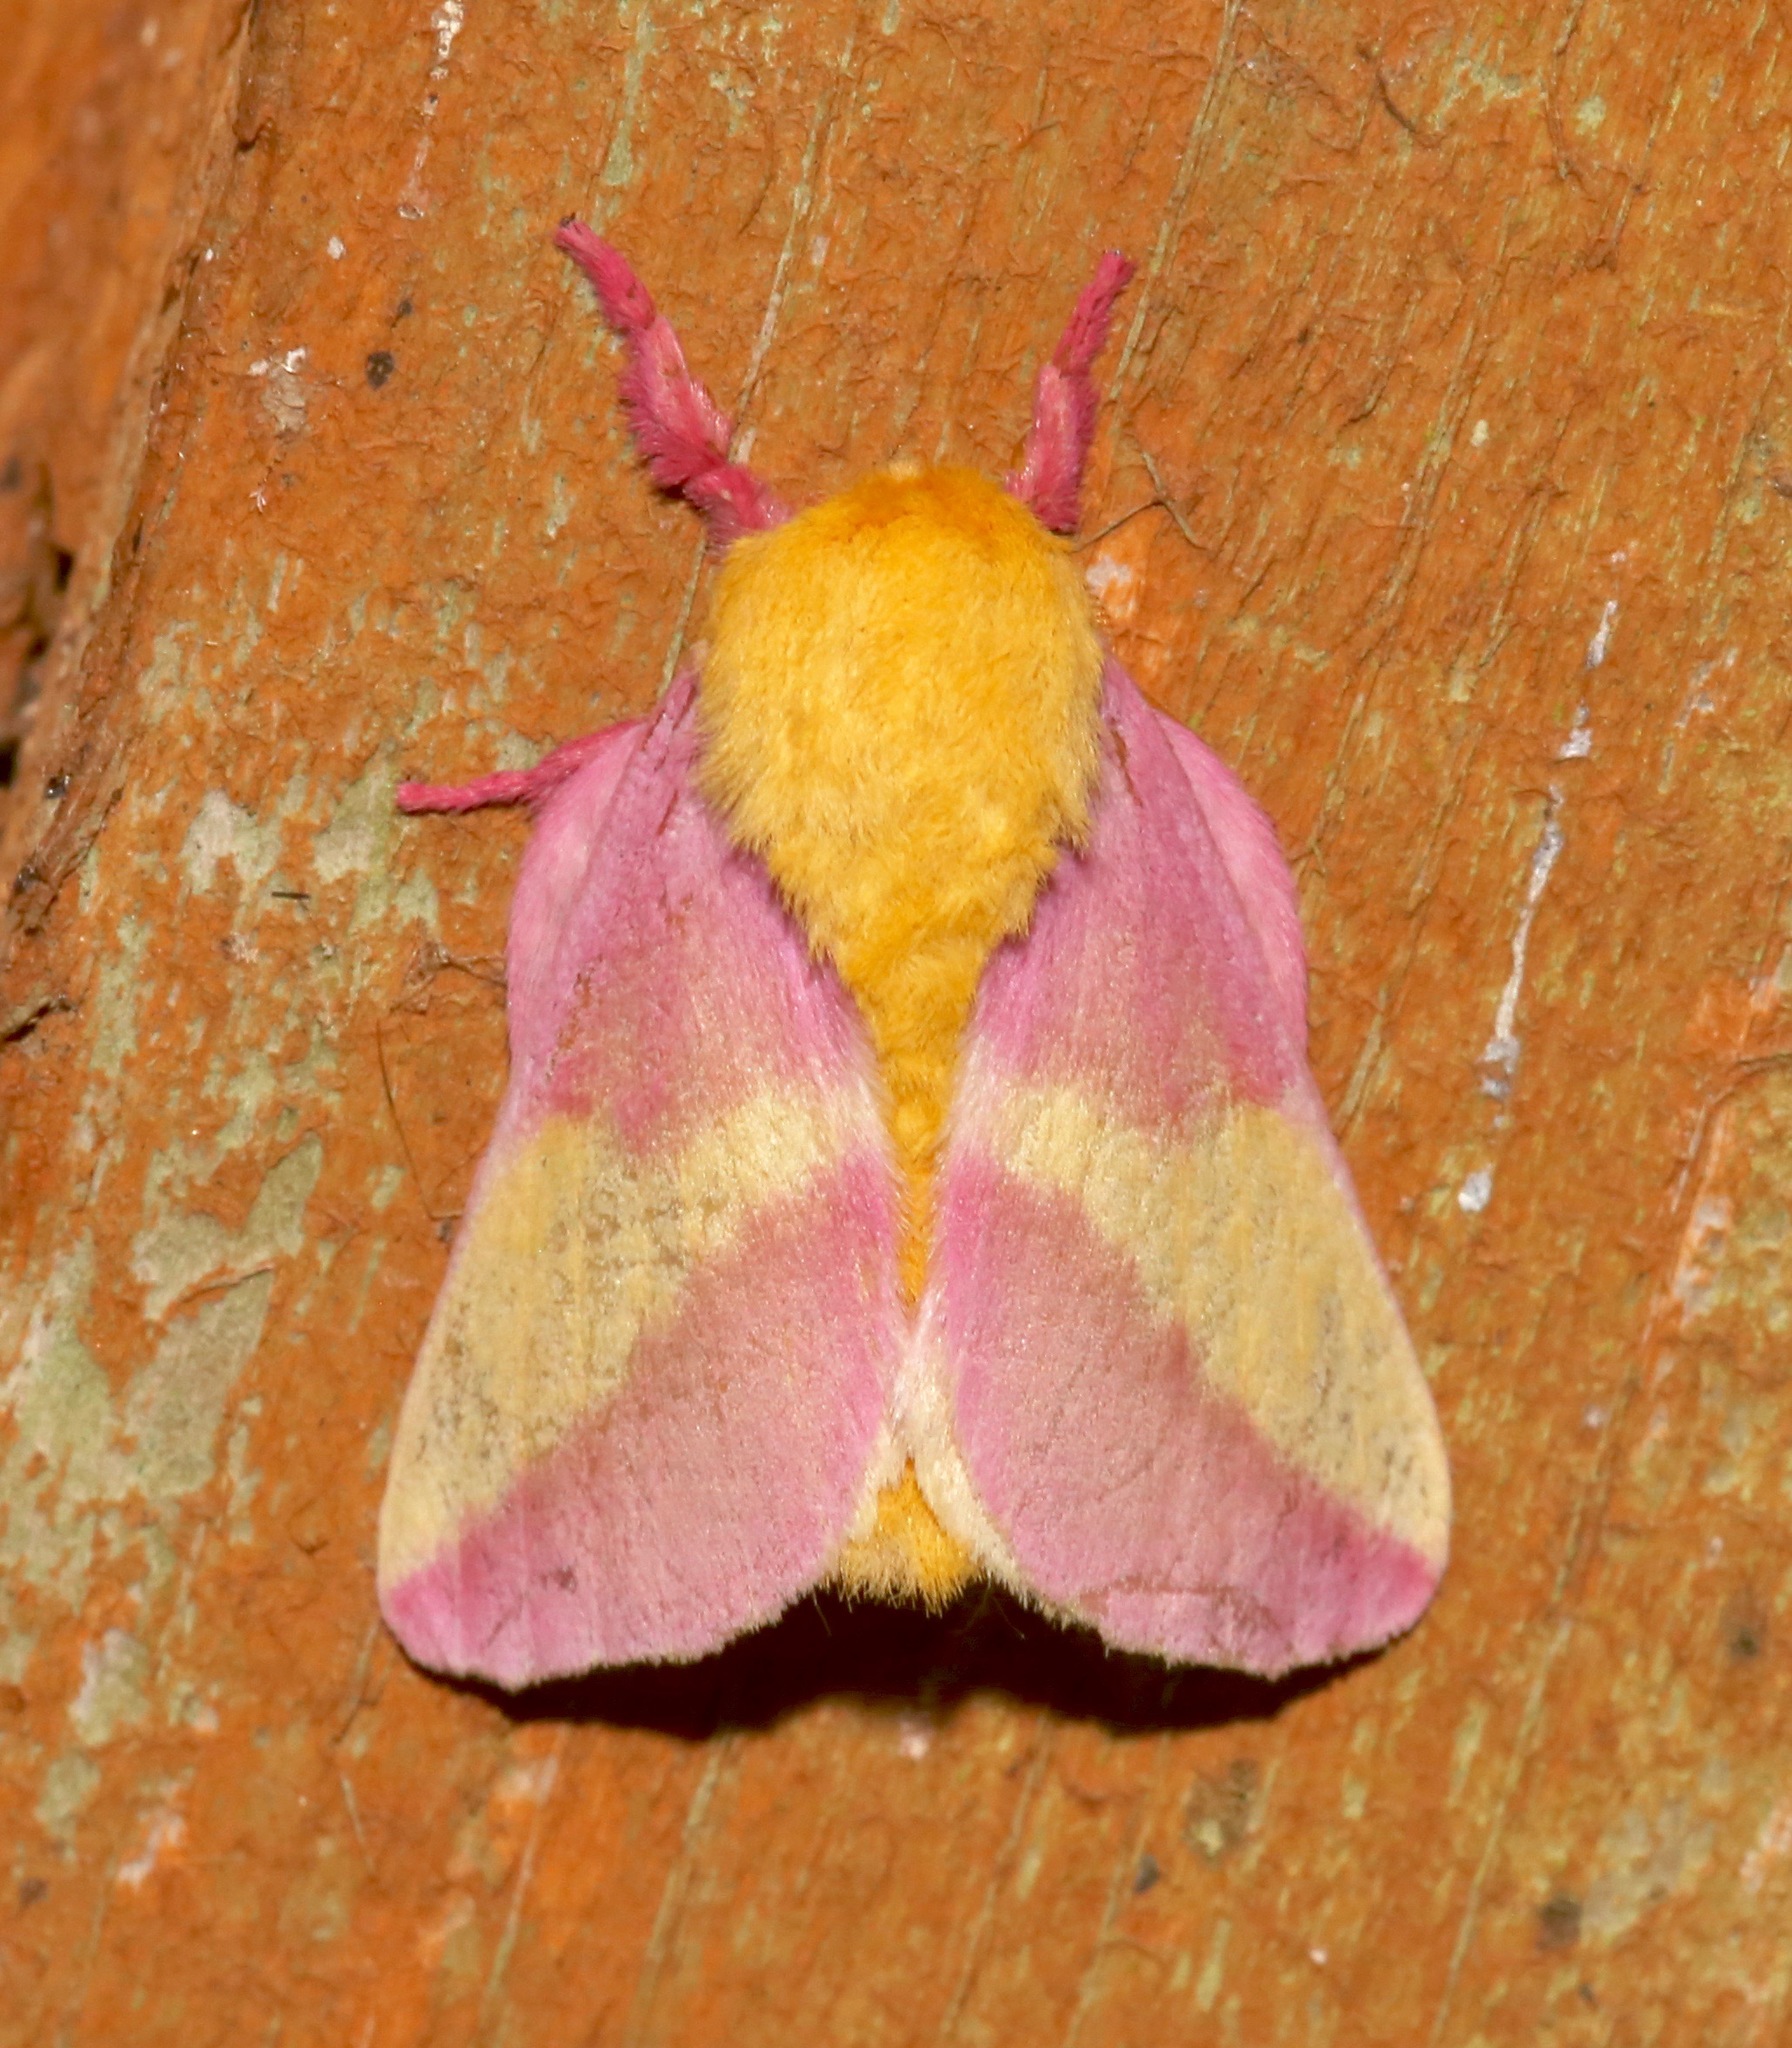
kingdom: Animalia
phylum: Arthropoda
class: Insecta
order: Lepidoptera
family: Saturniidae
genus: Dryocampa
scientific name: Dryocampa rubicunda
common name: Rosy maple moth
